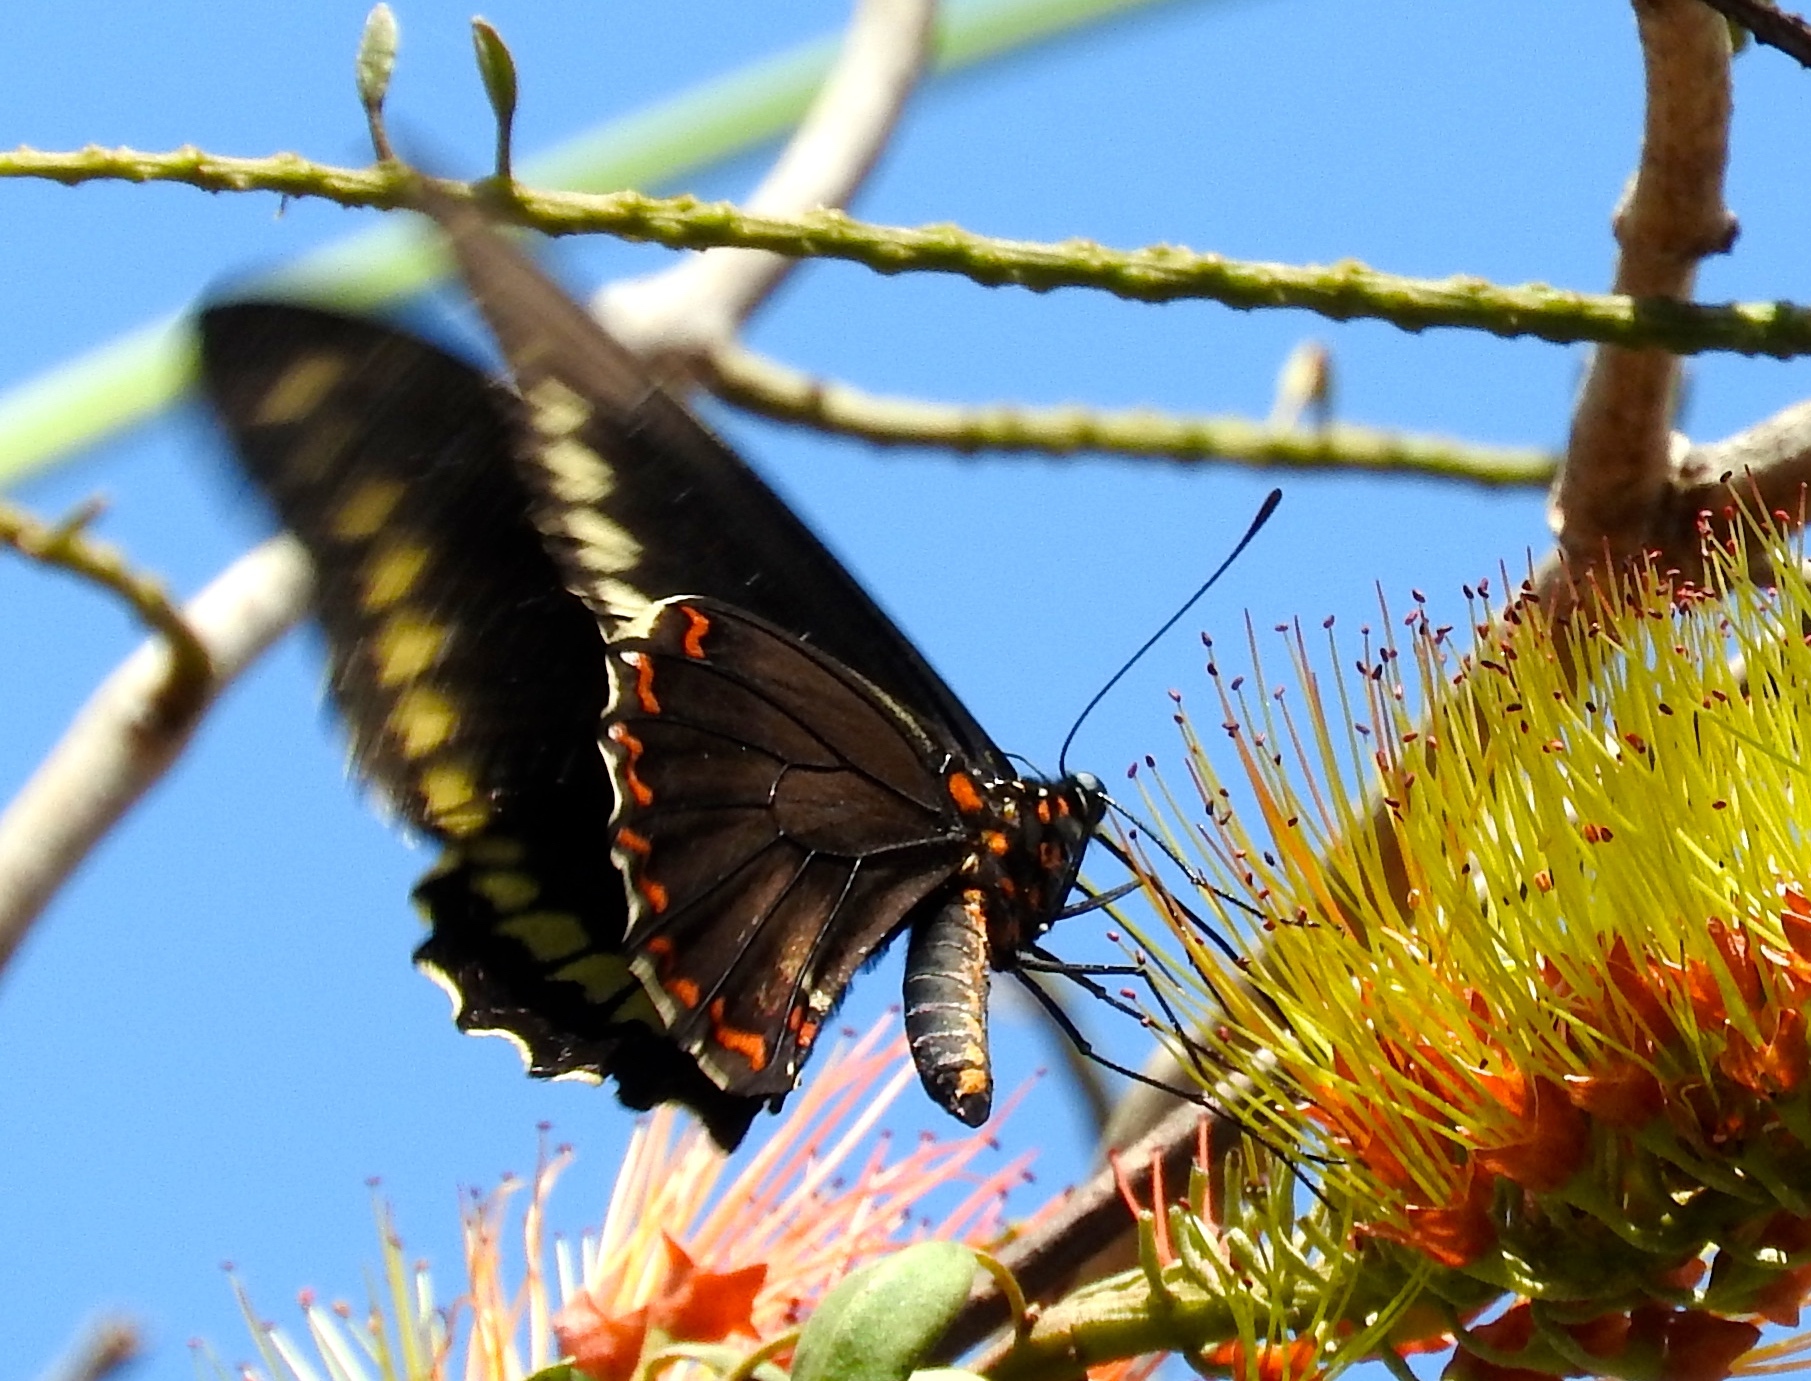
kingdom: Animalia
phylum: Arthropoda
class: Insecta
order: Lepidoptera
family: Papilionidae
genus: Battus
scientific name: Battus polydamas
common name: Polydamas swallowtail
